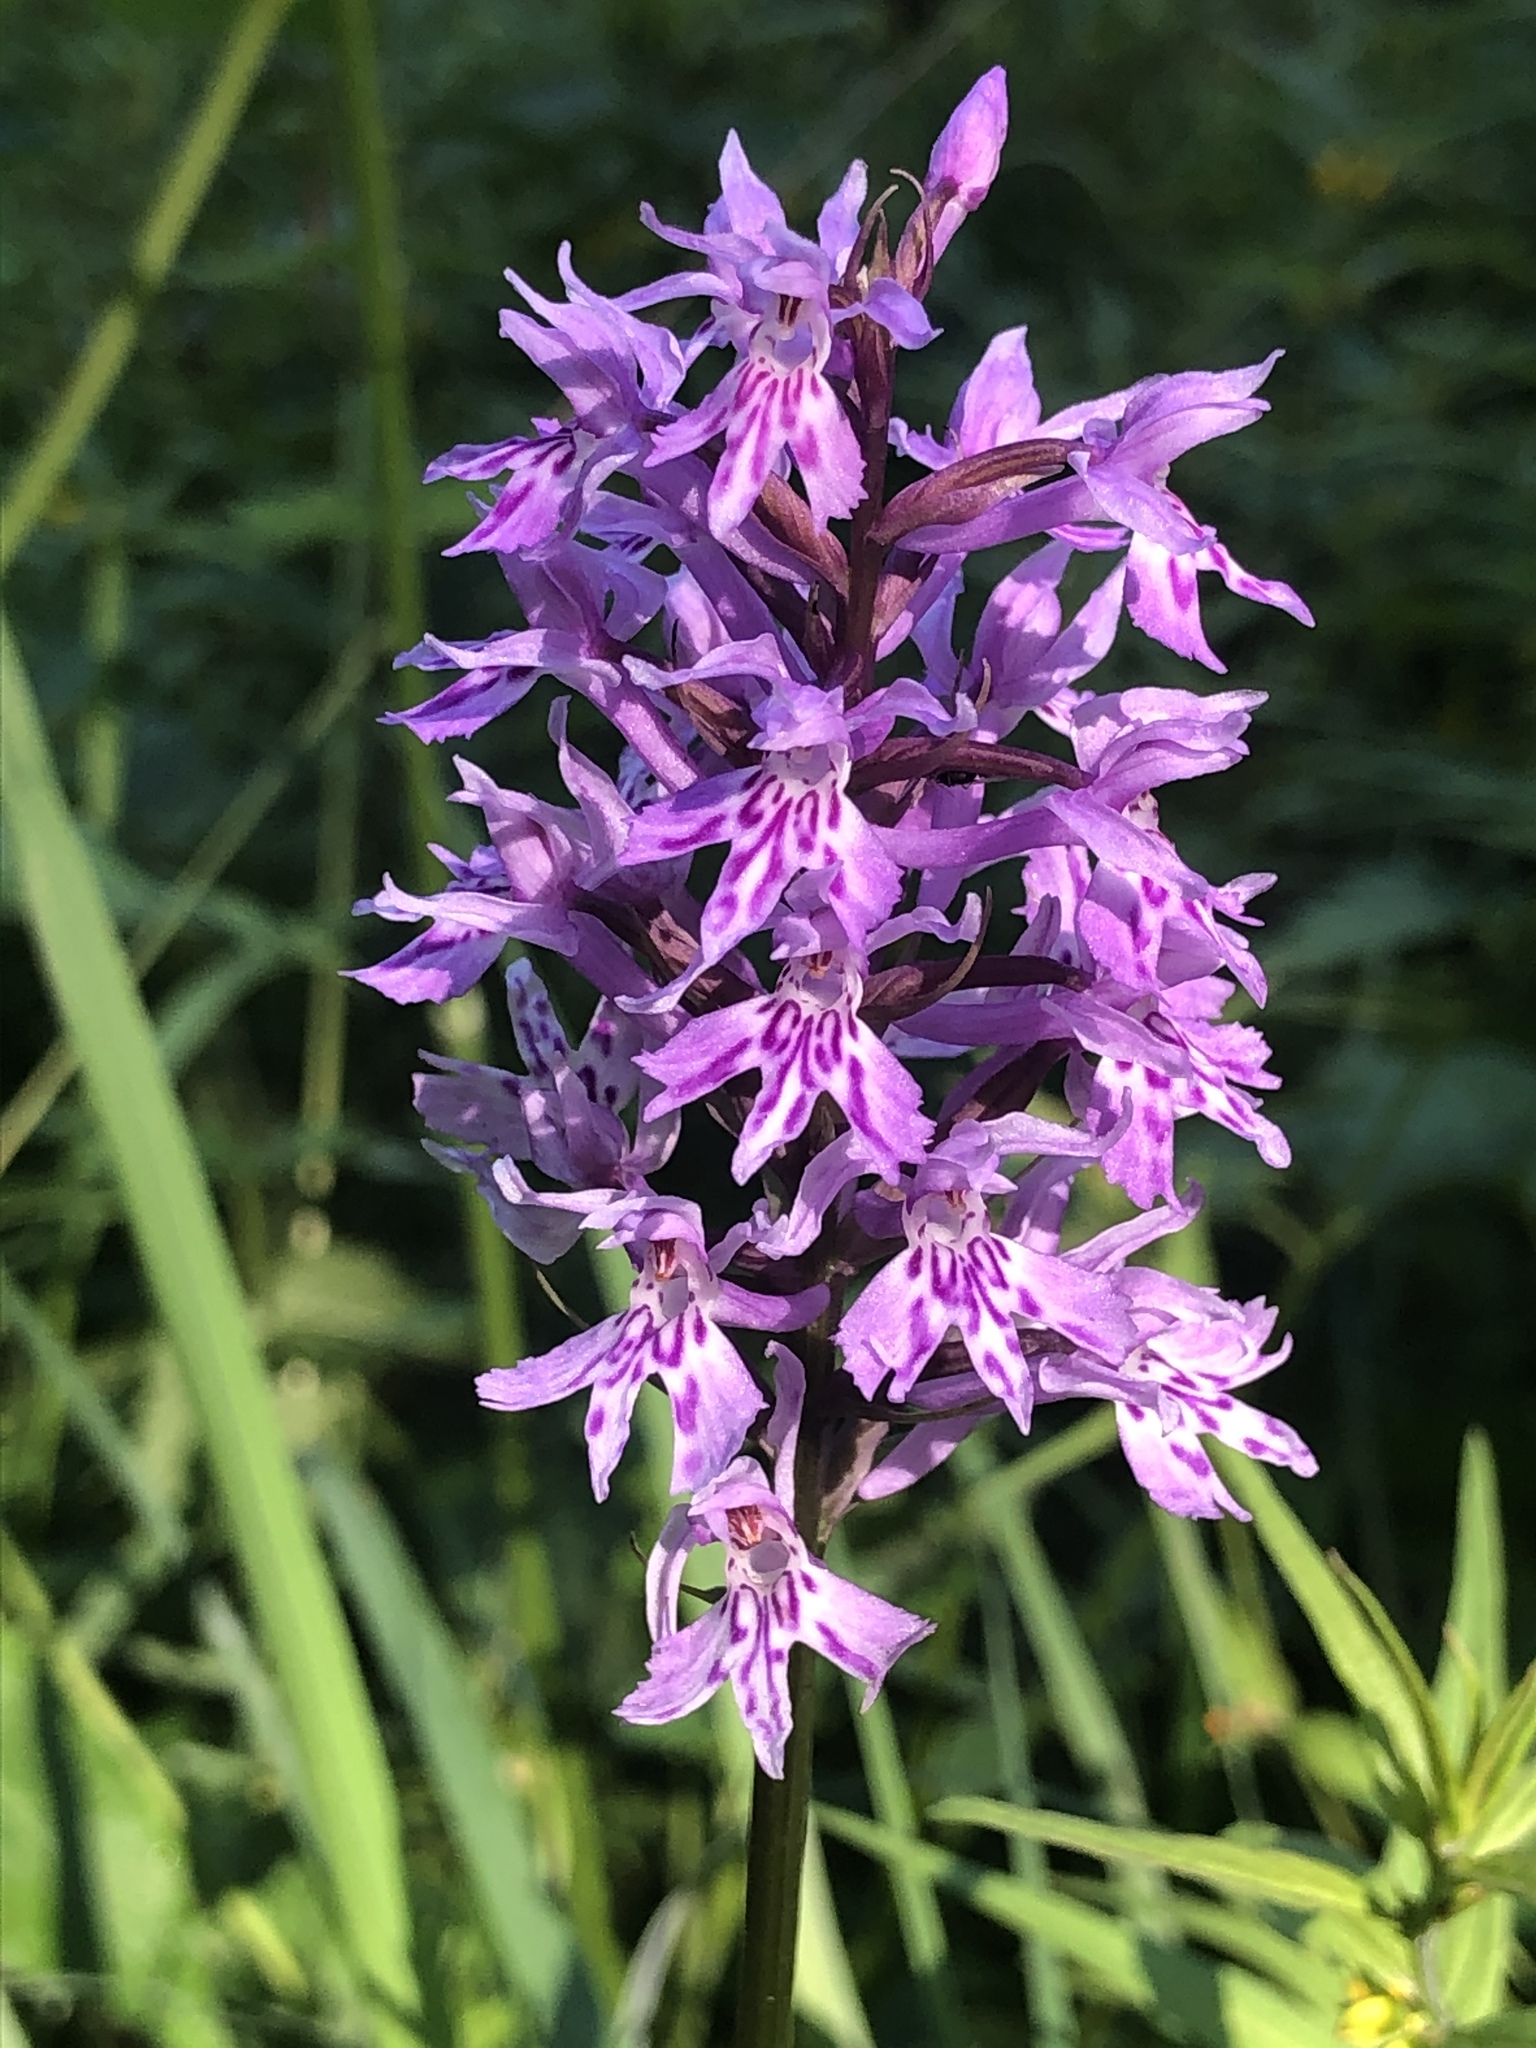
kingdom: Plantae
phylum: Tracheophyta
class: Liliopsida
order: Asparagales
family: Orchidaceae
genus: Dactylorhiza
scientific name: Dactylorhiza maculata
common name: Heath spotted-orchid
